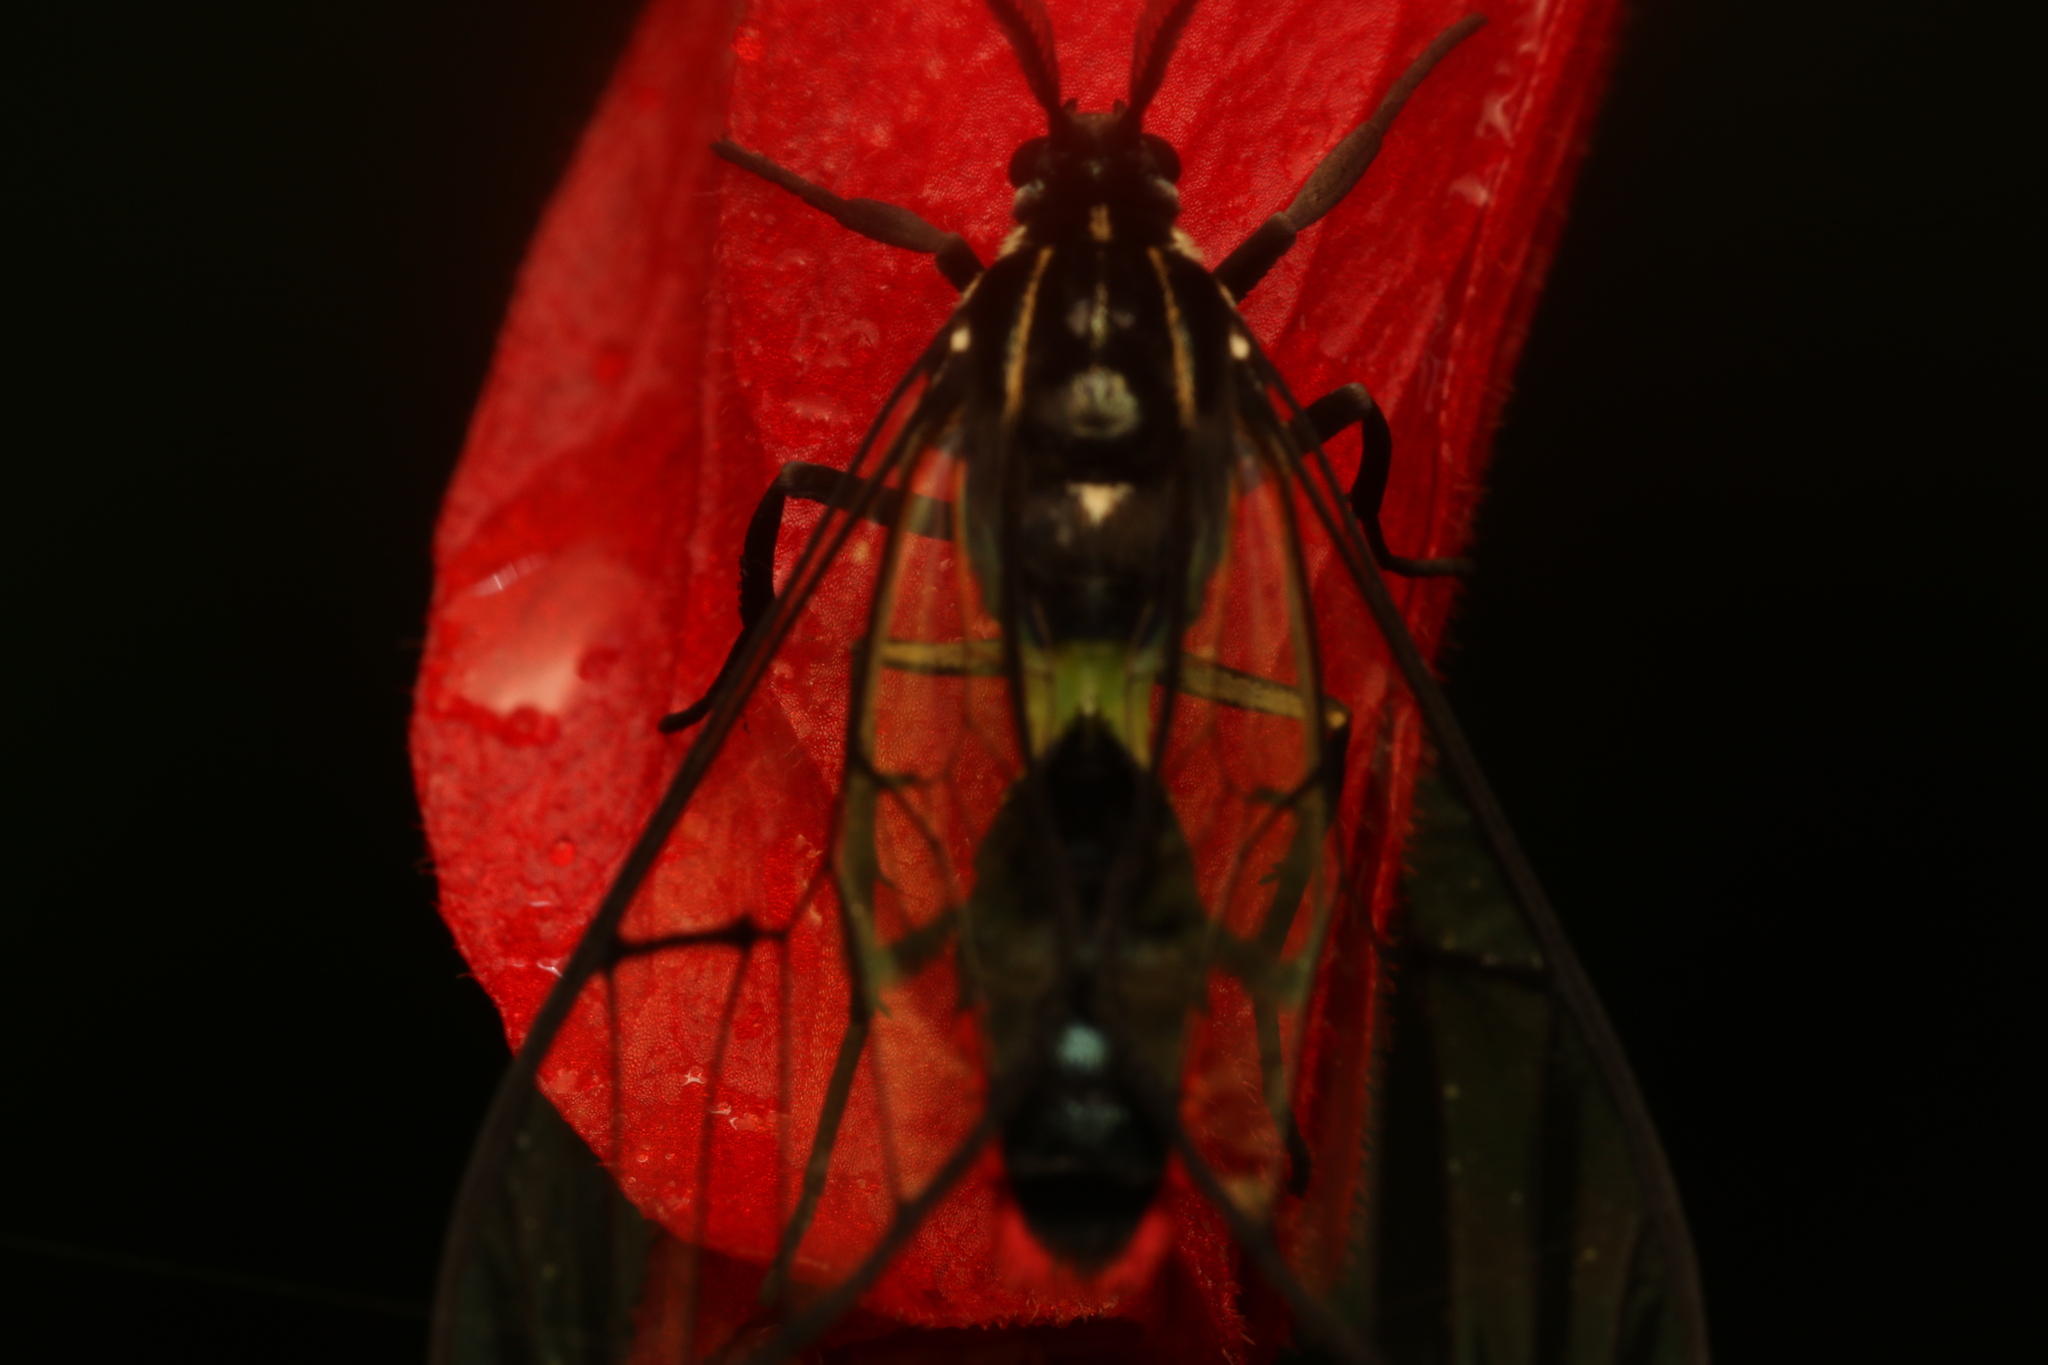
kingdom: Animalia
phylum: Arthropoda
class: Insecta
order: Lepidoptera
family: Erebidae
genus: Argyroeides
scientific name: Argyroeides ophion
